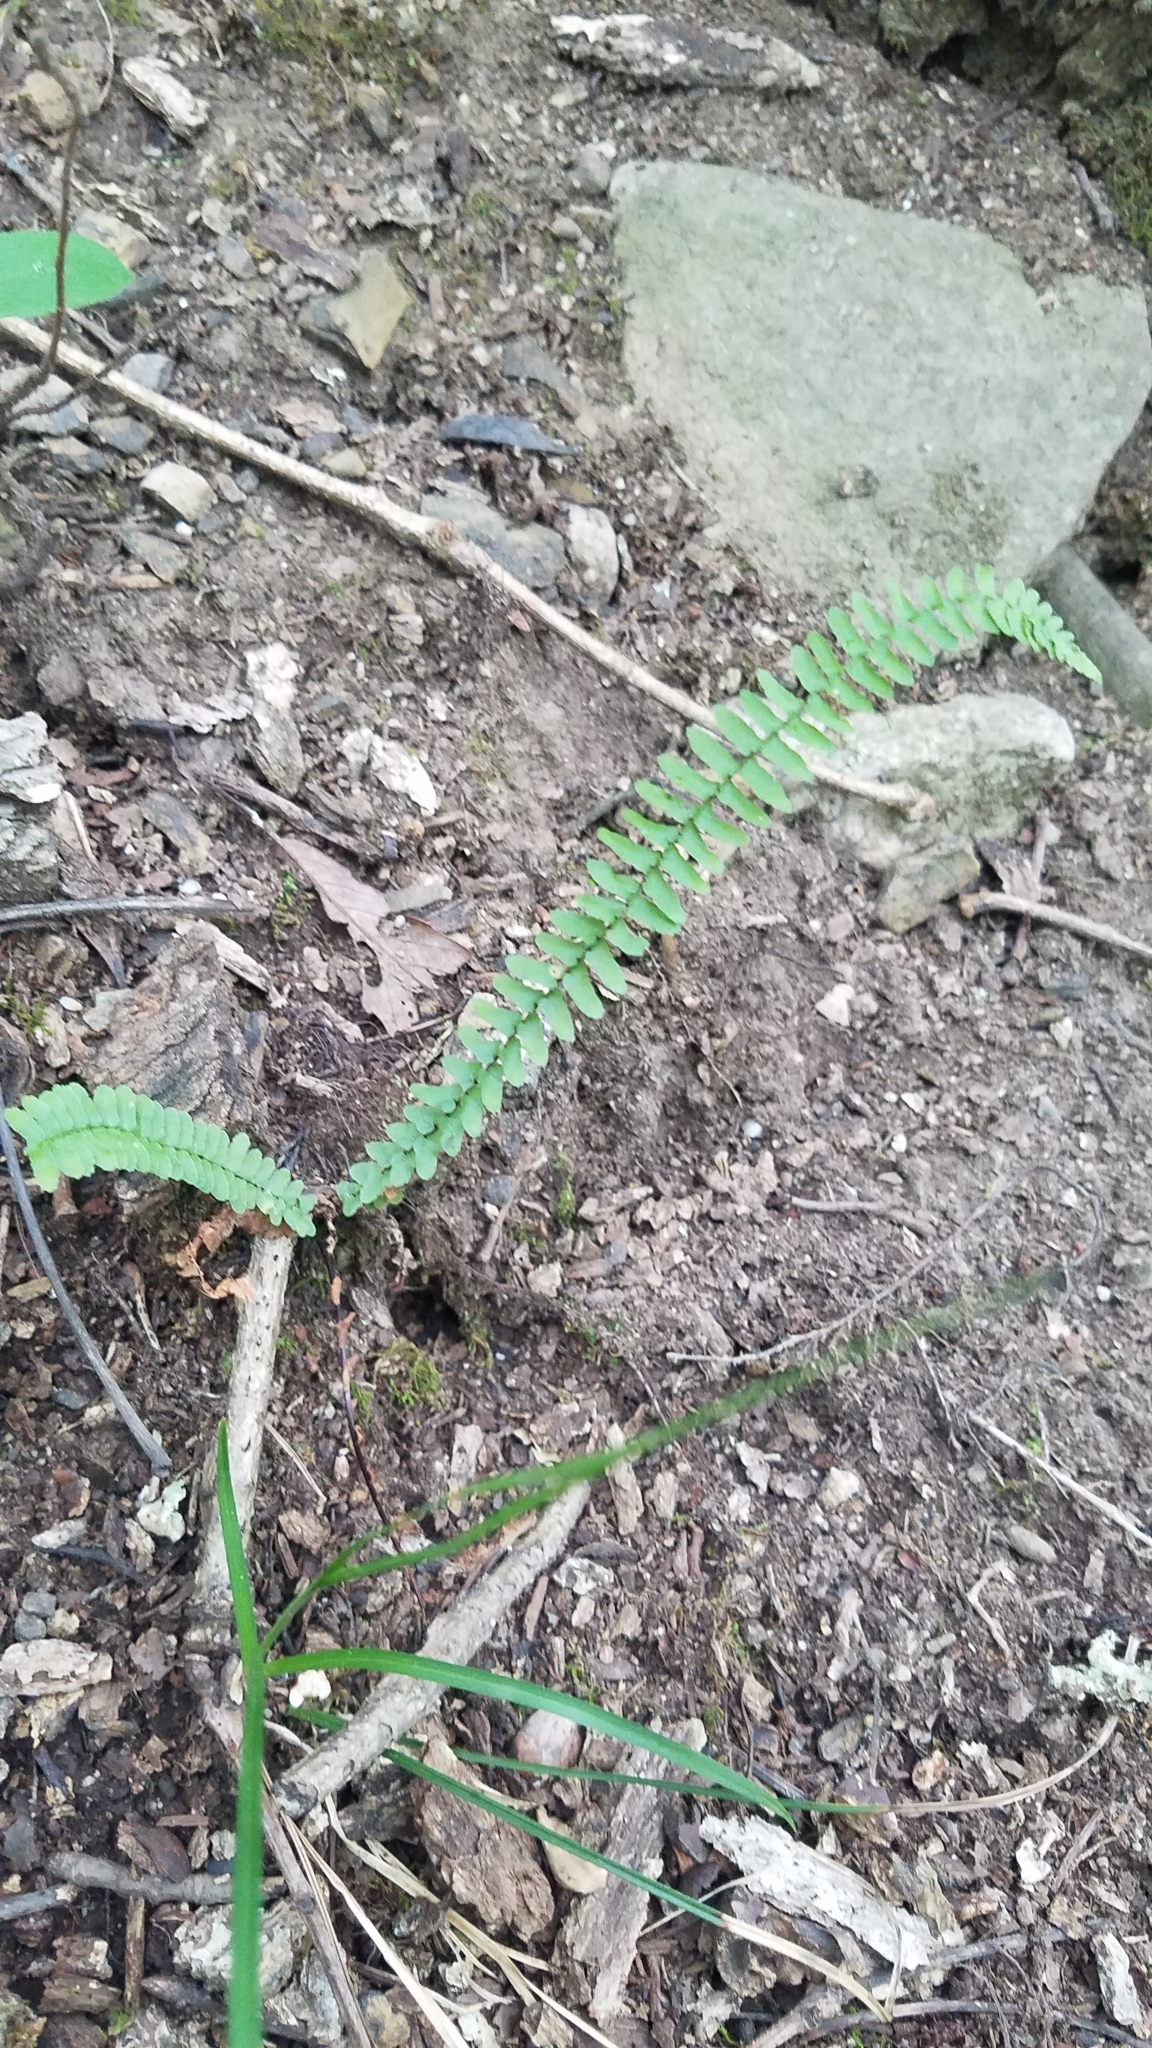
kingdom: Plantae
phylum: Tracheophyta
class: Polypodiopsida
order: Polypodiales
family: Aspleniaceae
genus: Asplenium
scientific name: Asplenium platyneuron
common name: Ebony spleenwort
